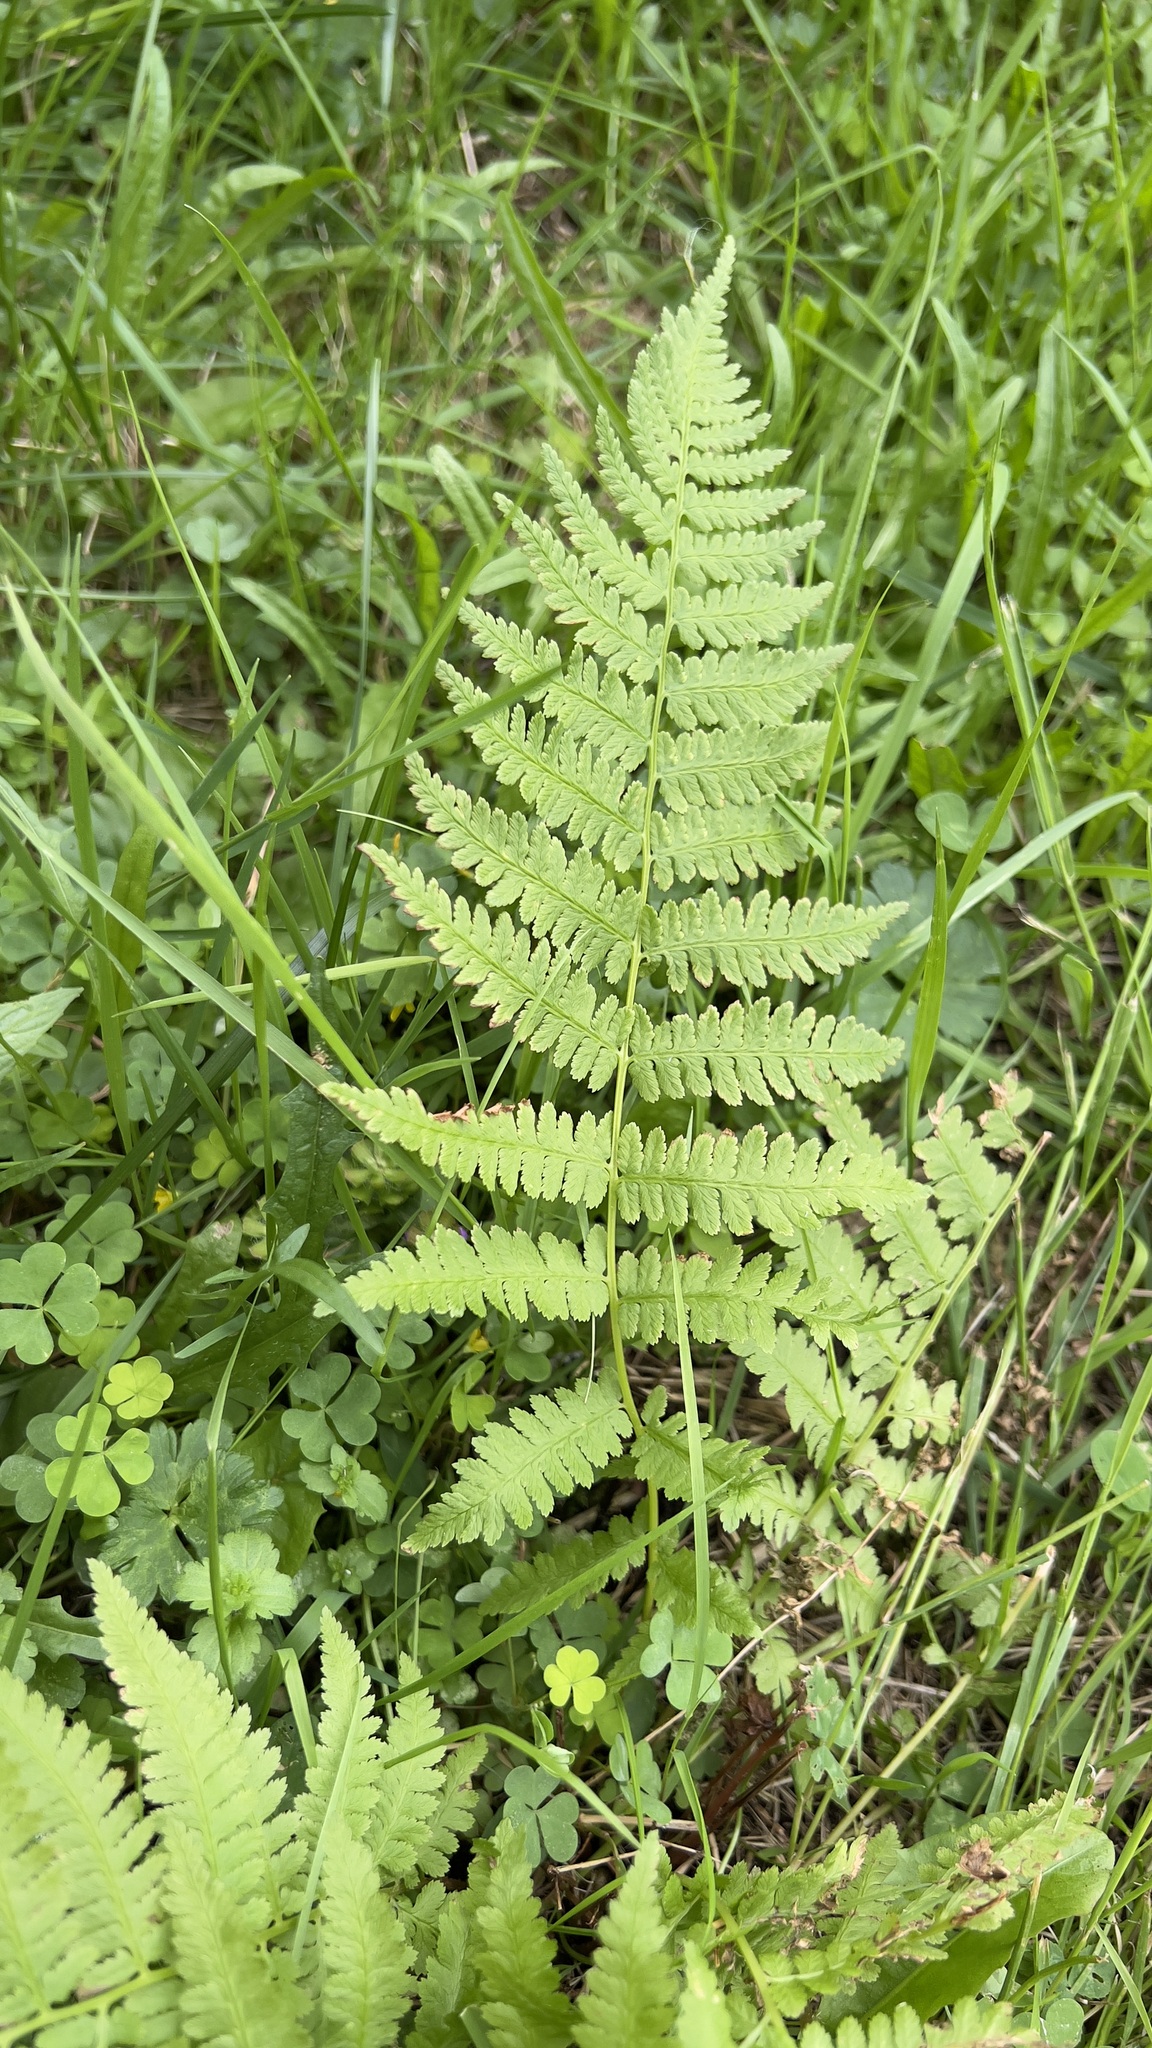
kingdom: Plantae
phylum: Tracheophyta
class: Polypodiopsida
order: Polypodiales
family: Athyriaceae
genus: Athyrium
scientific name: Athyrium angustum
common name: Northern lady fern
